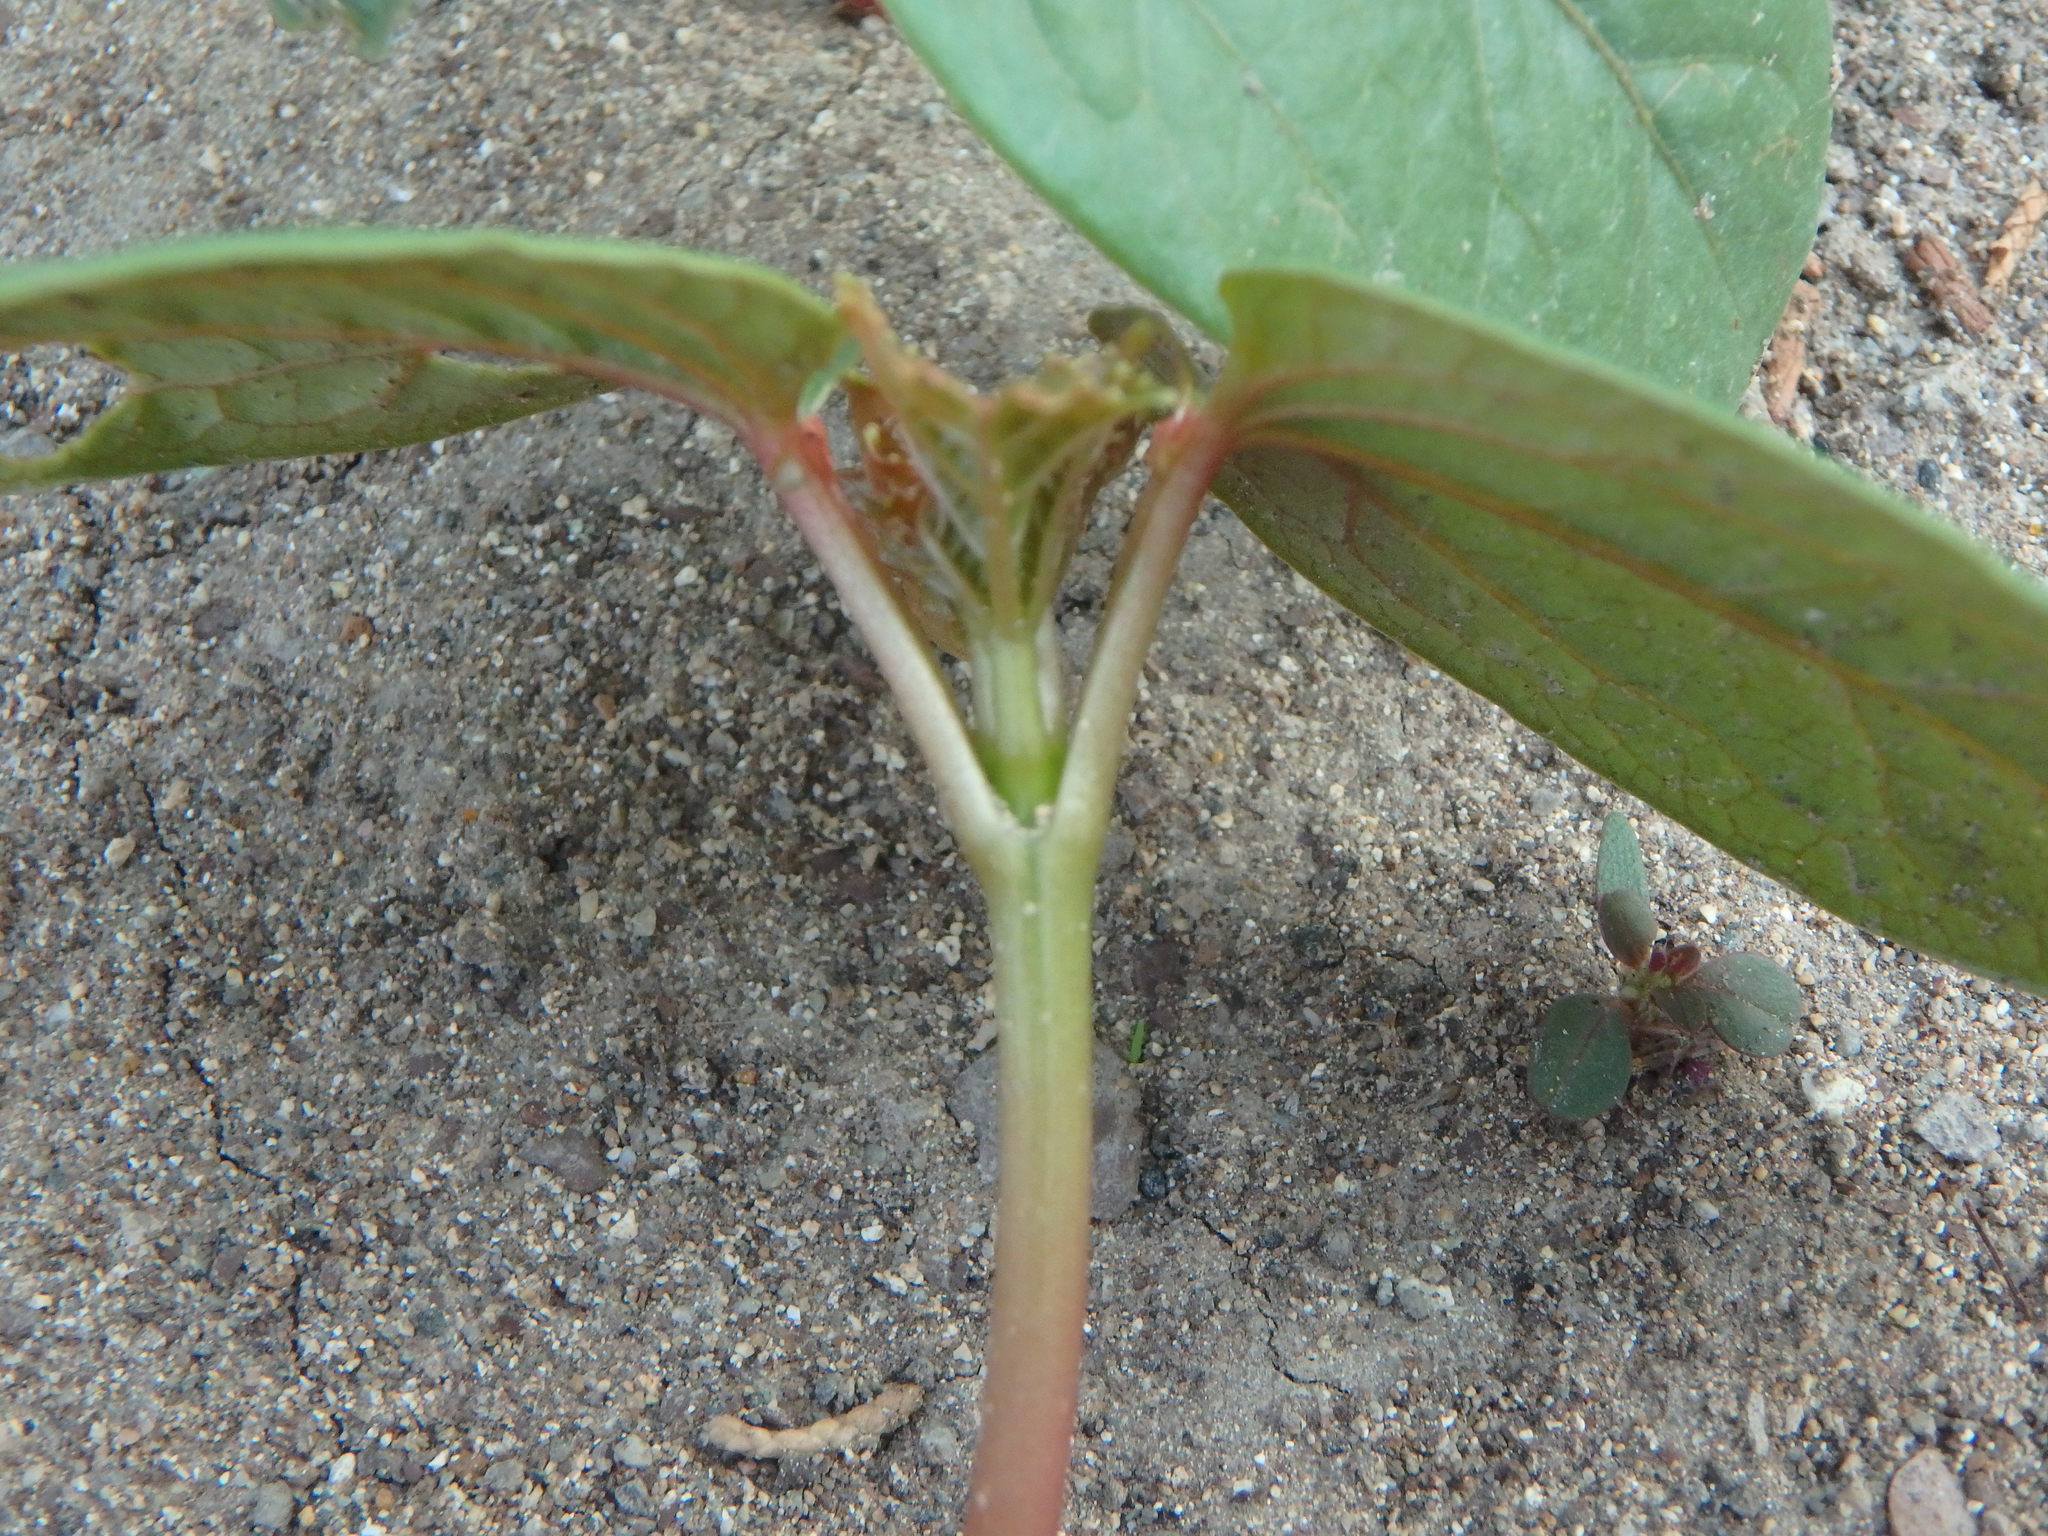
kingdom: Plantae
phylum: Tracheophyta
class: Magnoliopsida
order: Malpighiales
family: Euphorbiaceae
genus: Ricinus
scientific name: Ricinus communis
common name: Castor-oil-plant
